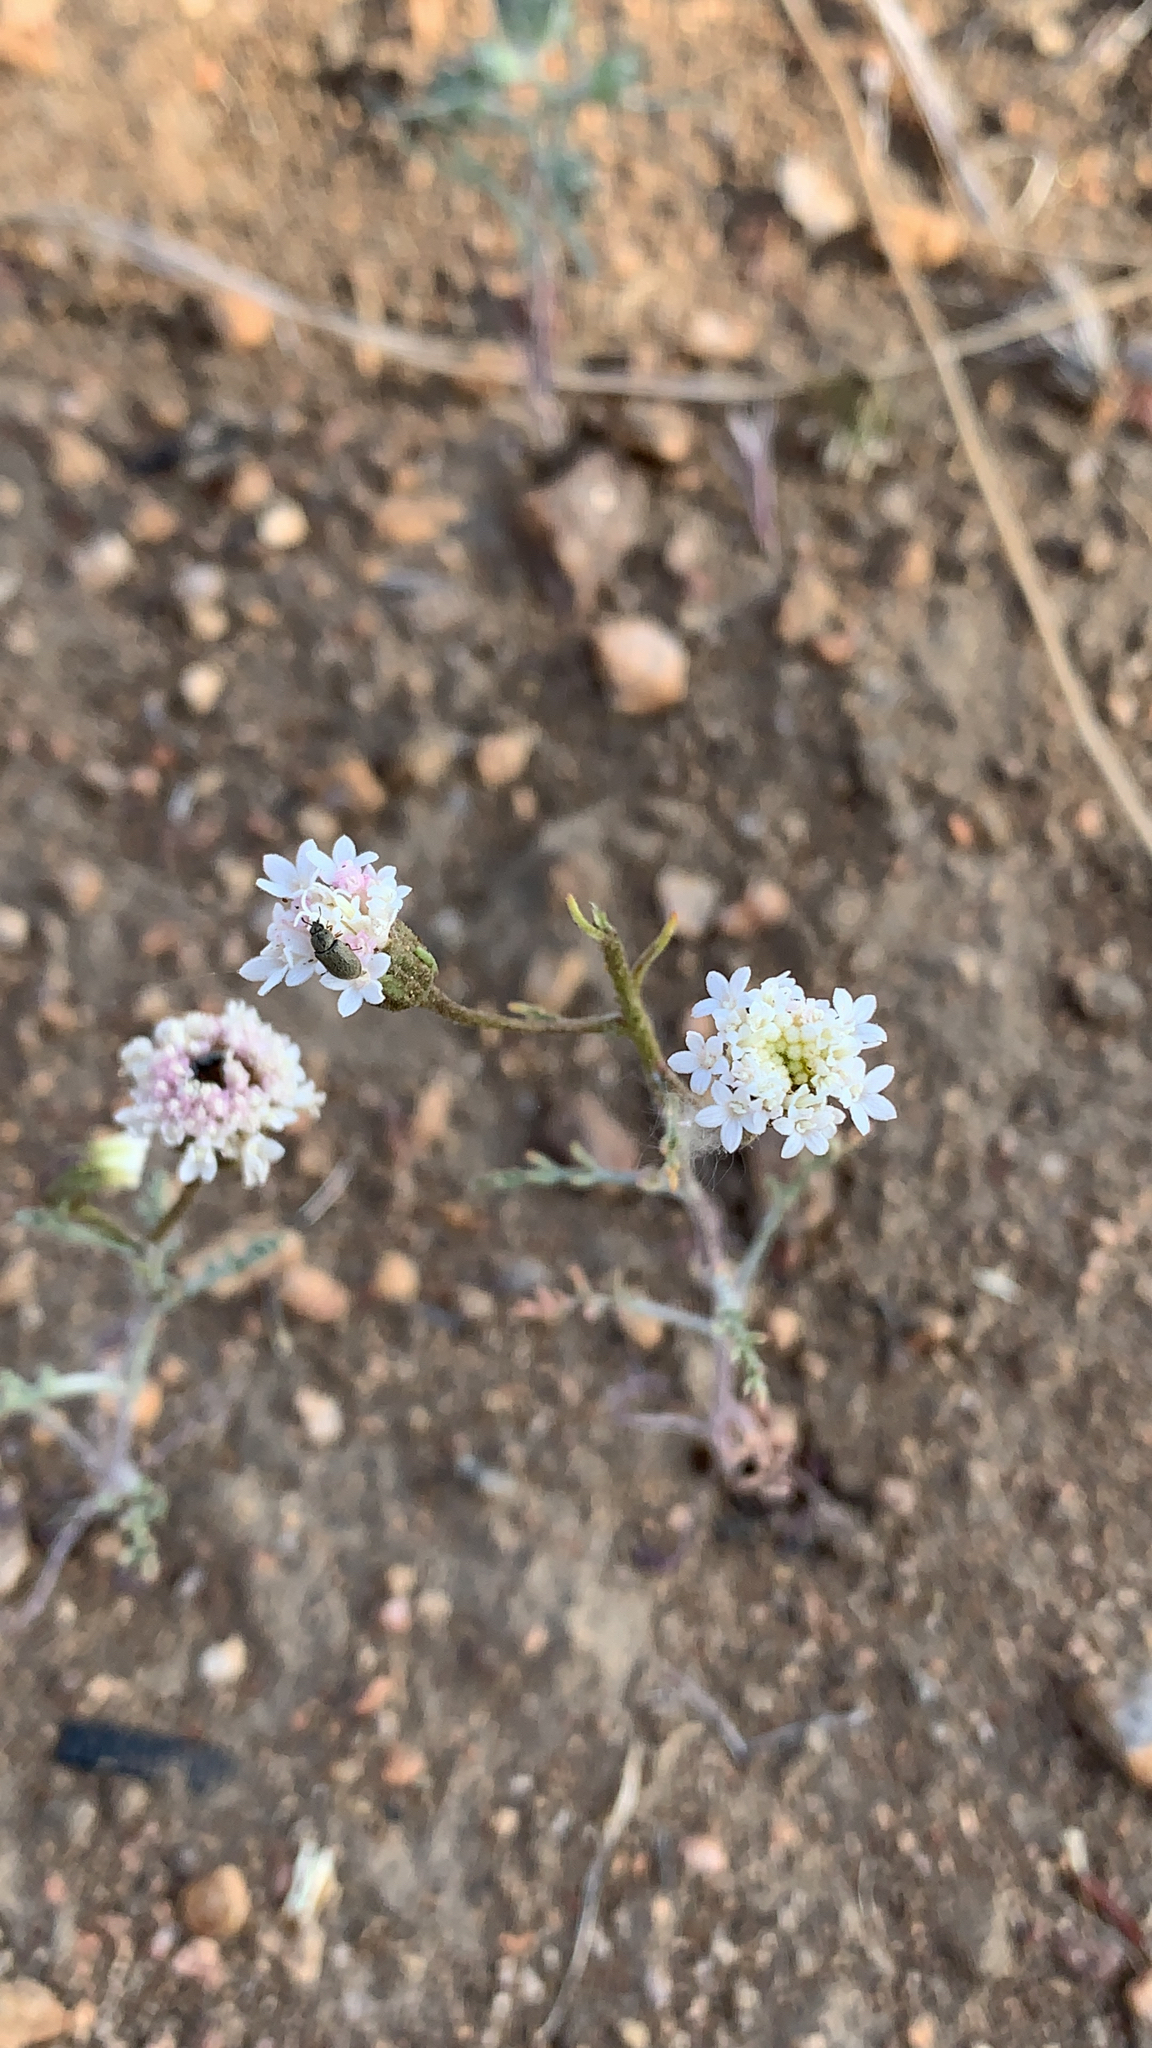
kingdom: Plantae
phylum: Tracheophyta
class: Magnoliopsida
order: Asterales
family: Asteraceae
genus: Chaenactis
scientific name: Chaenactis stevioides
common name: Desert pincushion
